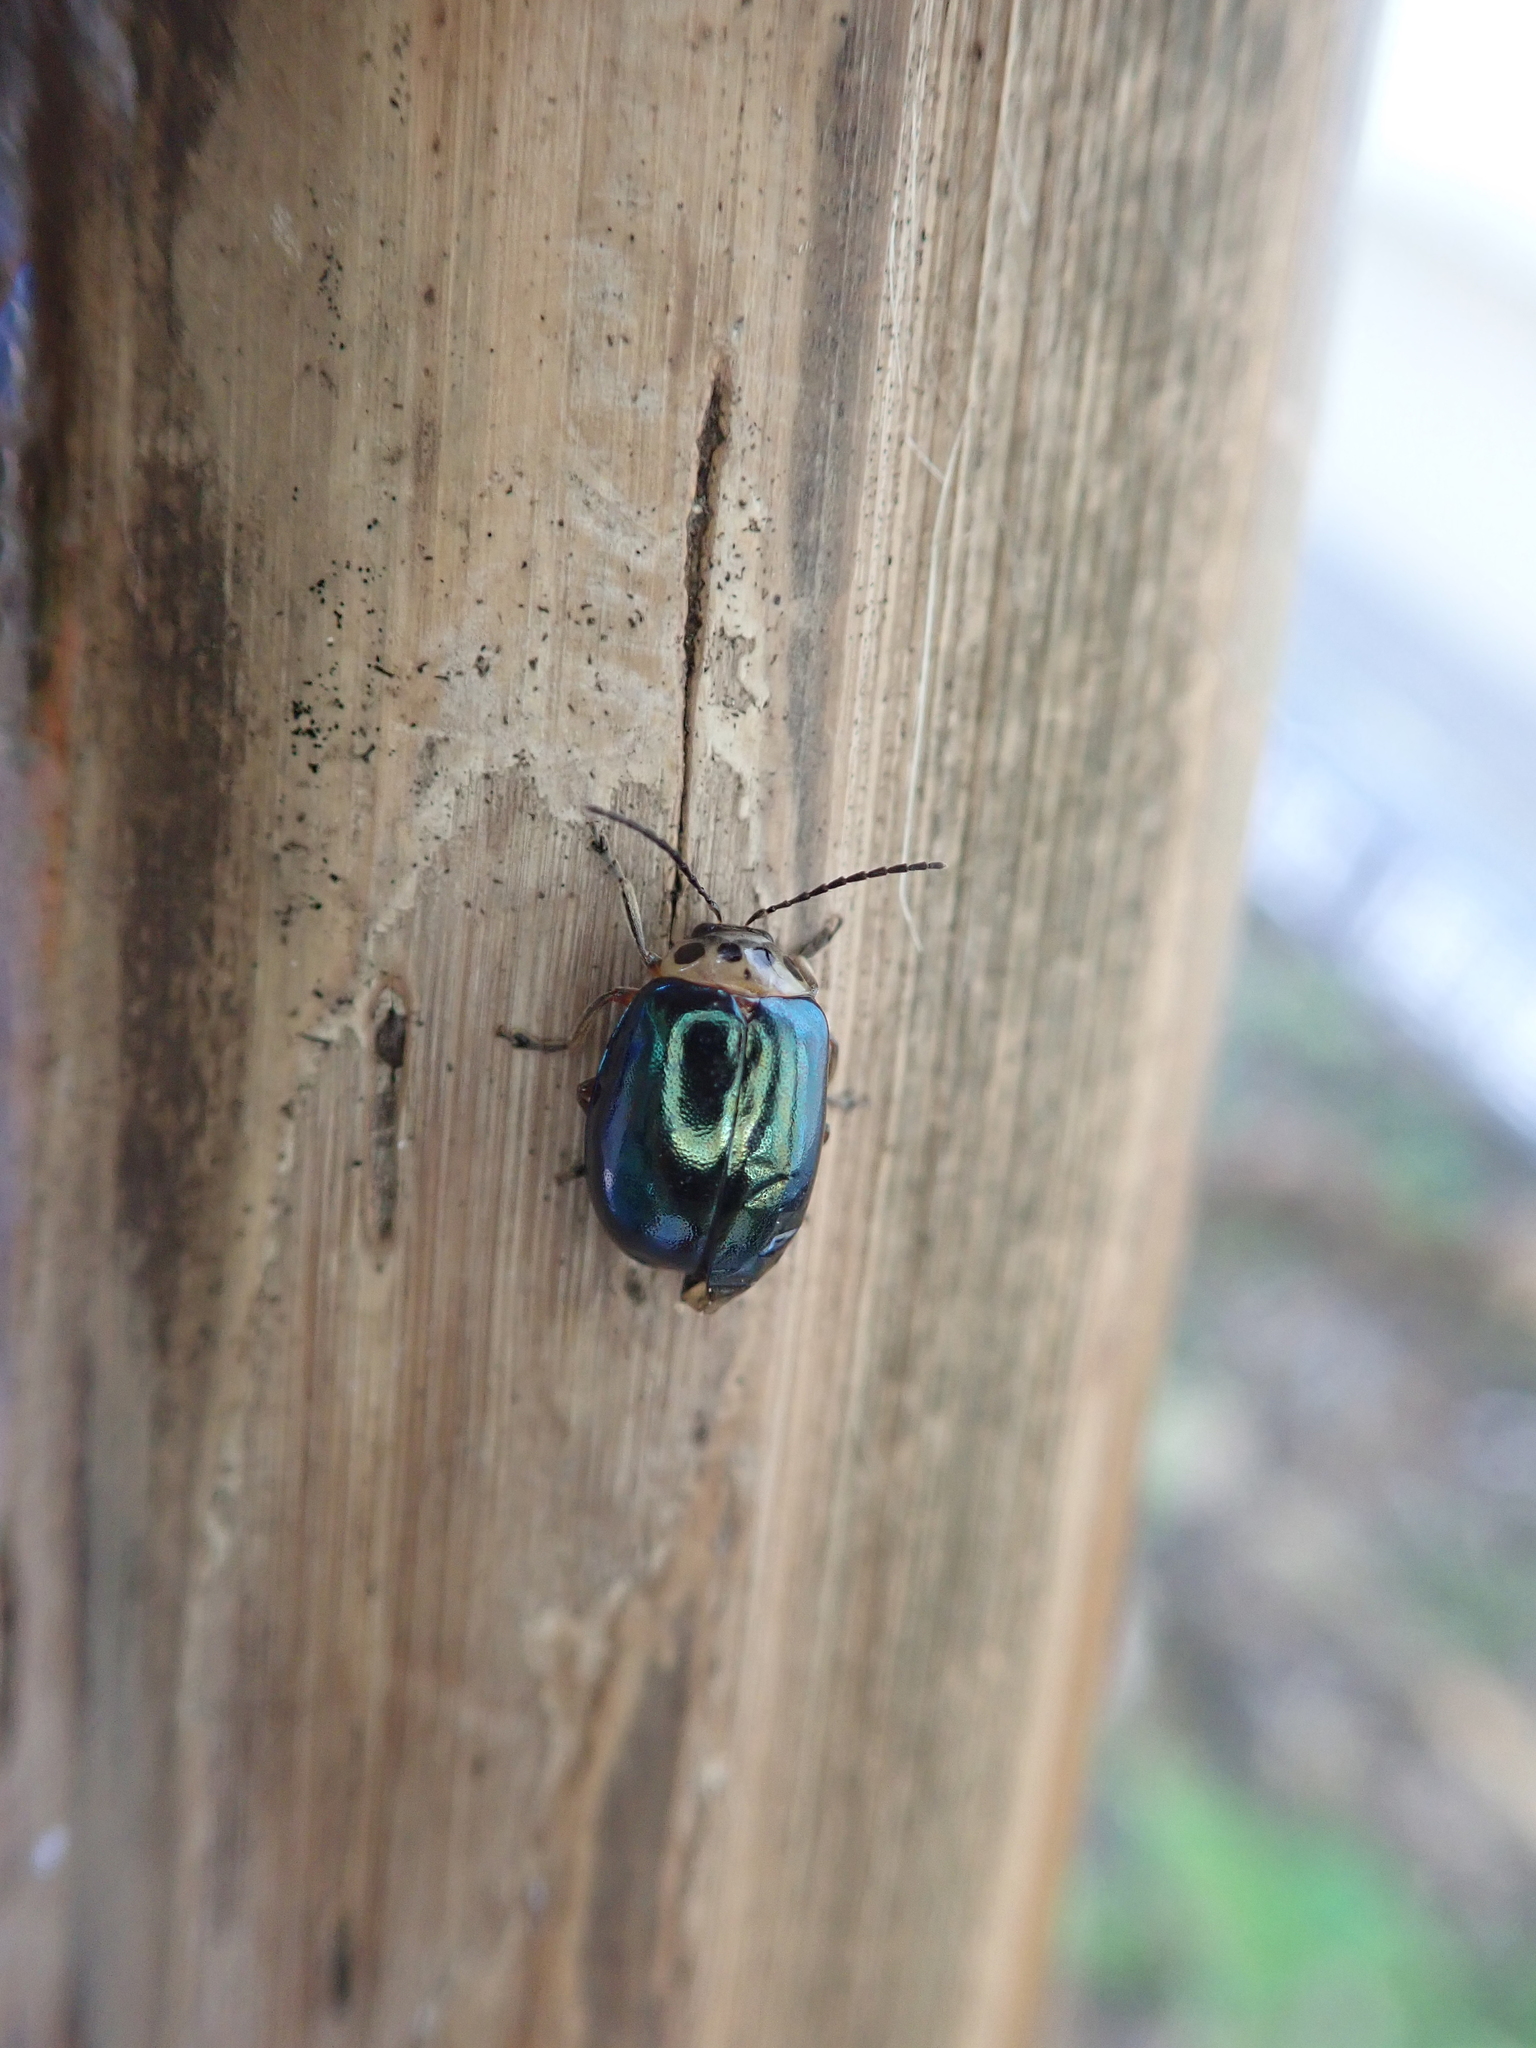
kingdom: Animalia
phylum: Arthropoda
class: Insecta
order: Coleoptera
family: Chrysomelidae
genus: Morphosphaera
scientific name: Morphosphaera chrysomeloides
